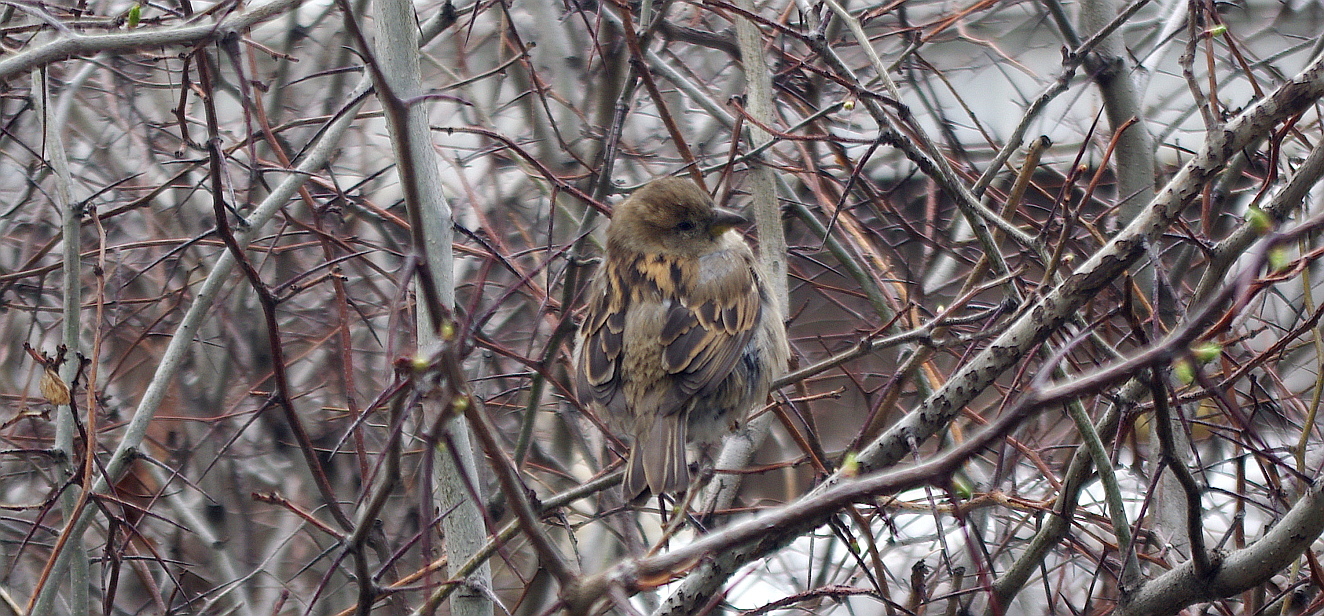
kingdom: Animalia
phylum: Chordata
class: Aves
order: Passeriformes
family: Passeridae
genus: Passer
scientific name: Passer domesticus
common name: House sparrow
